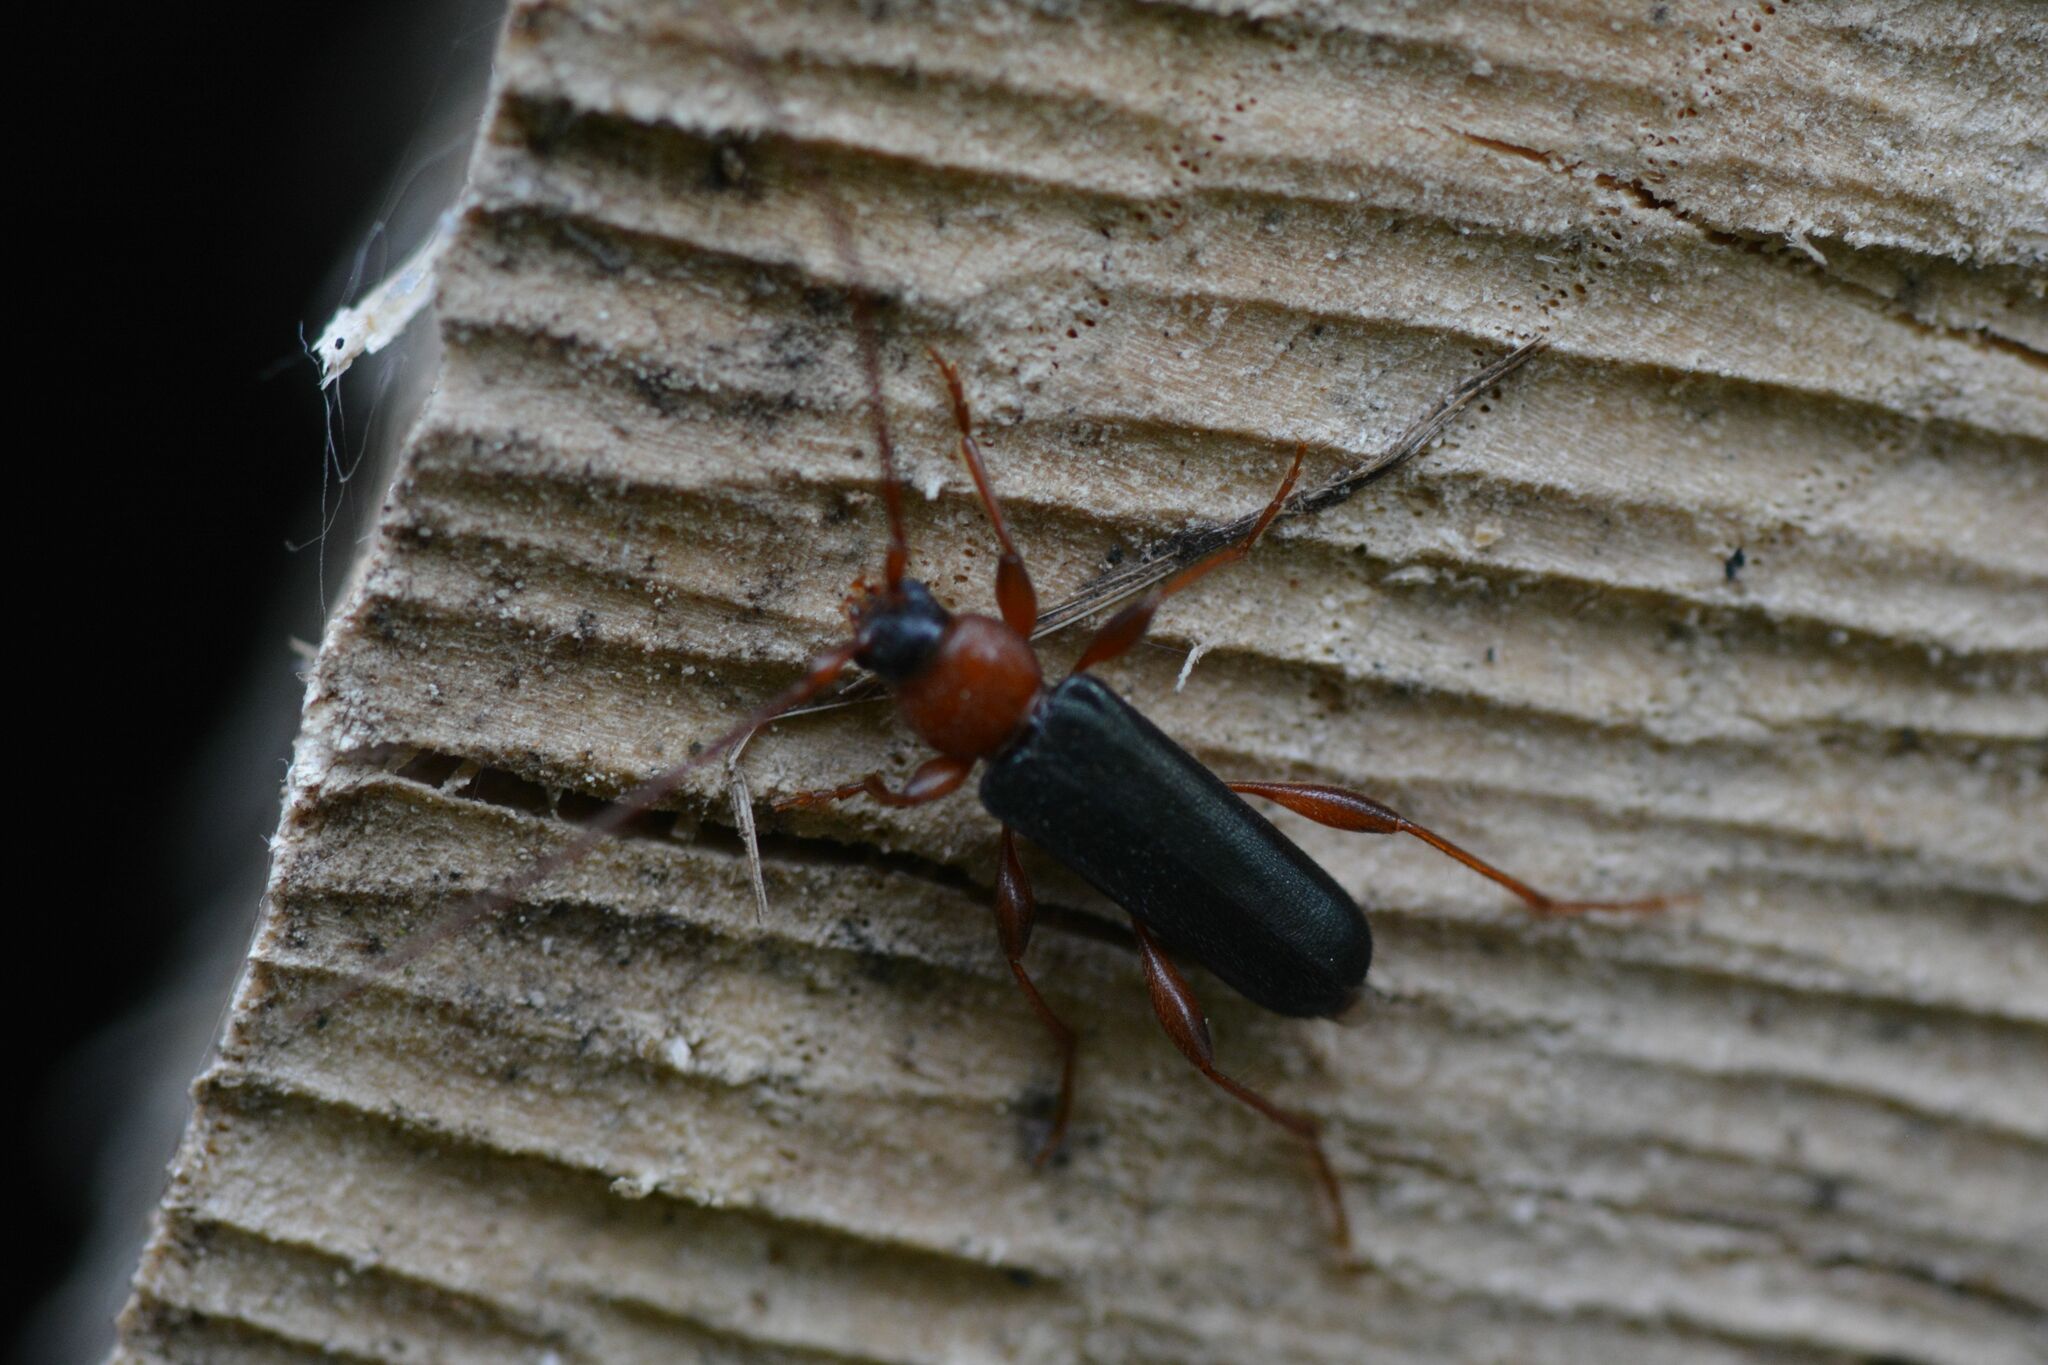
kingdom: Animalia
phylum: Arthropoda
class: Insecta
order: Coleoptera
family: Cerambycidae
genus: Phymatodes
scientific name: Phymatodes testaceus
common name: Long-horned beetle
